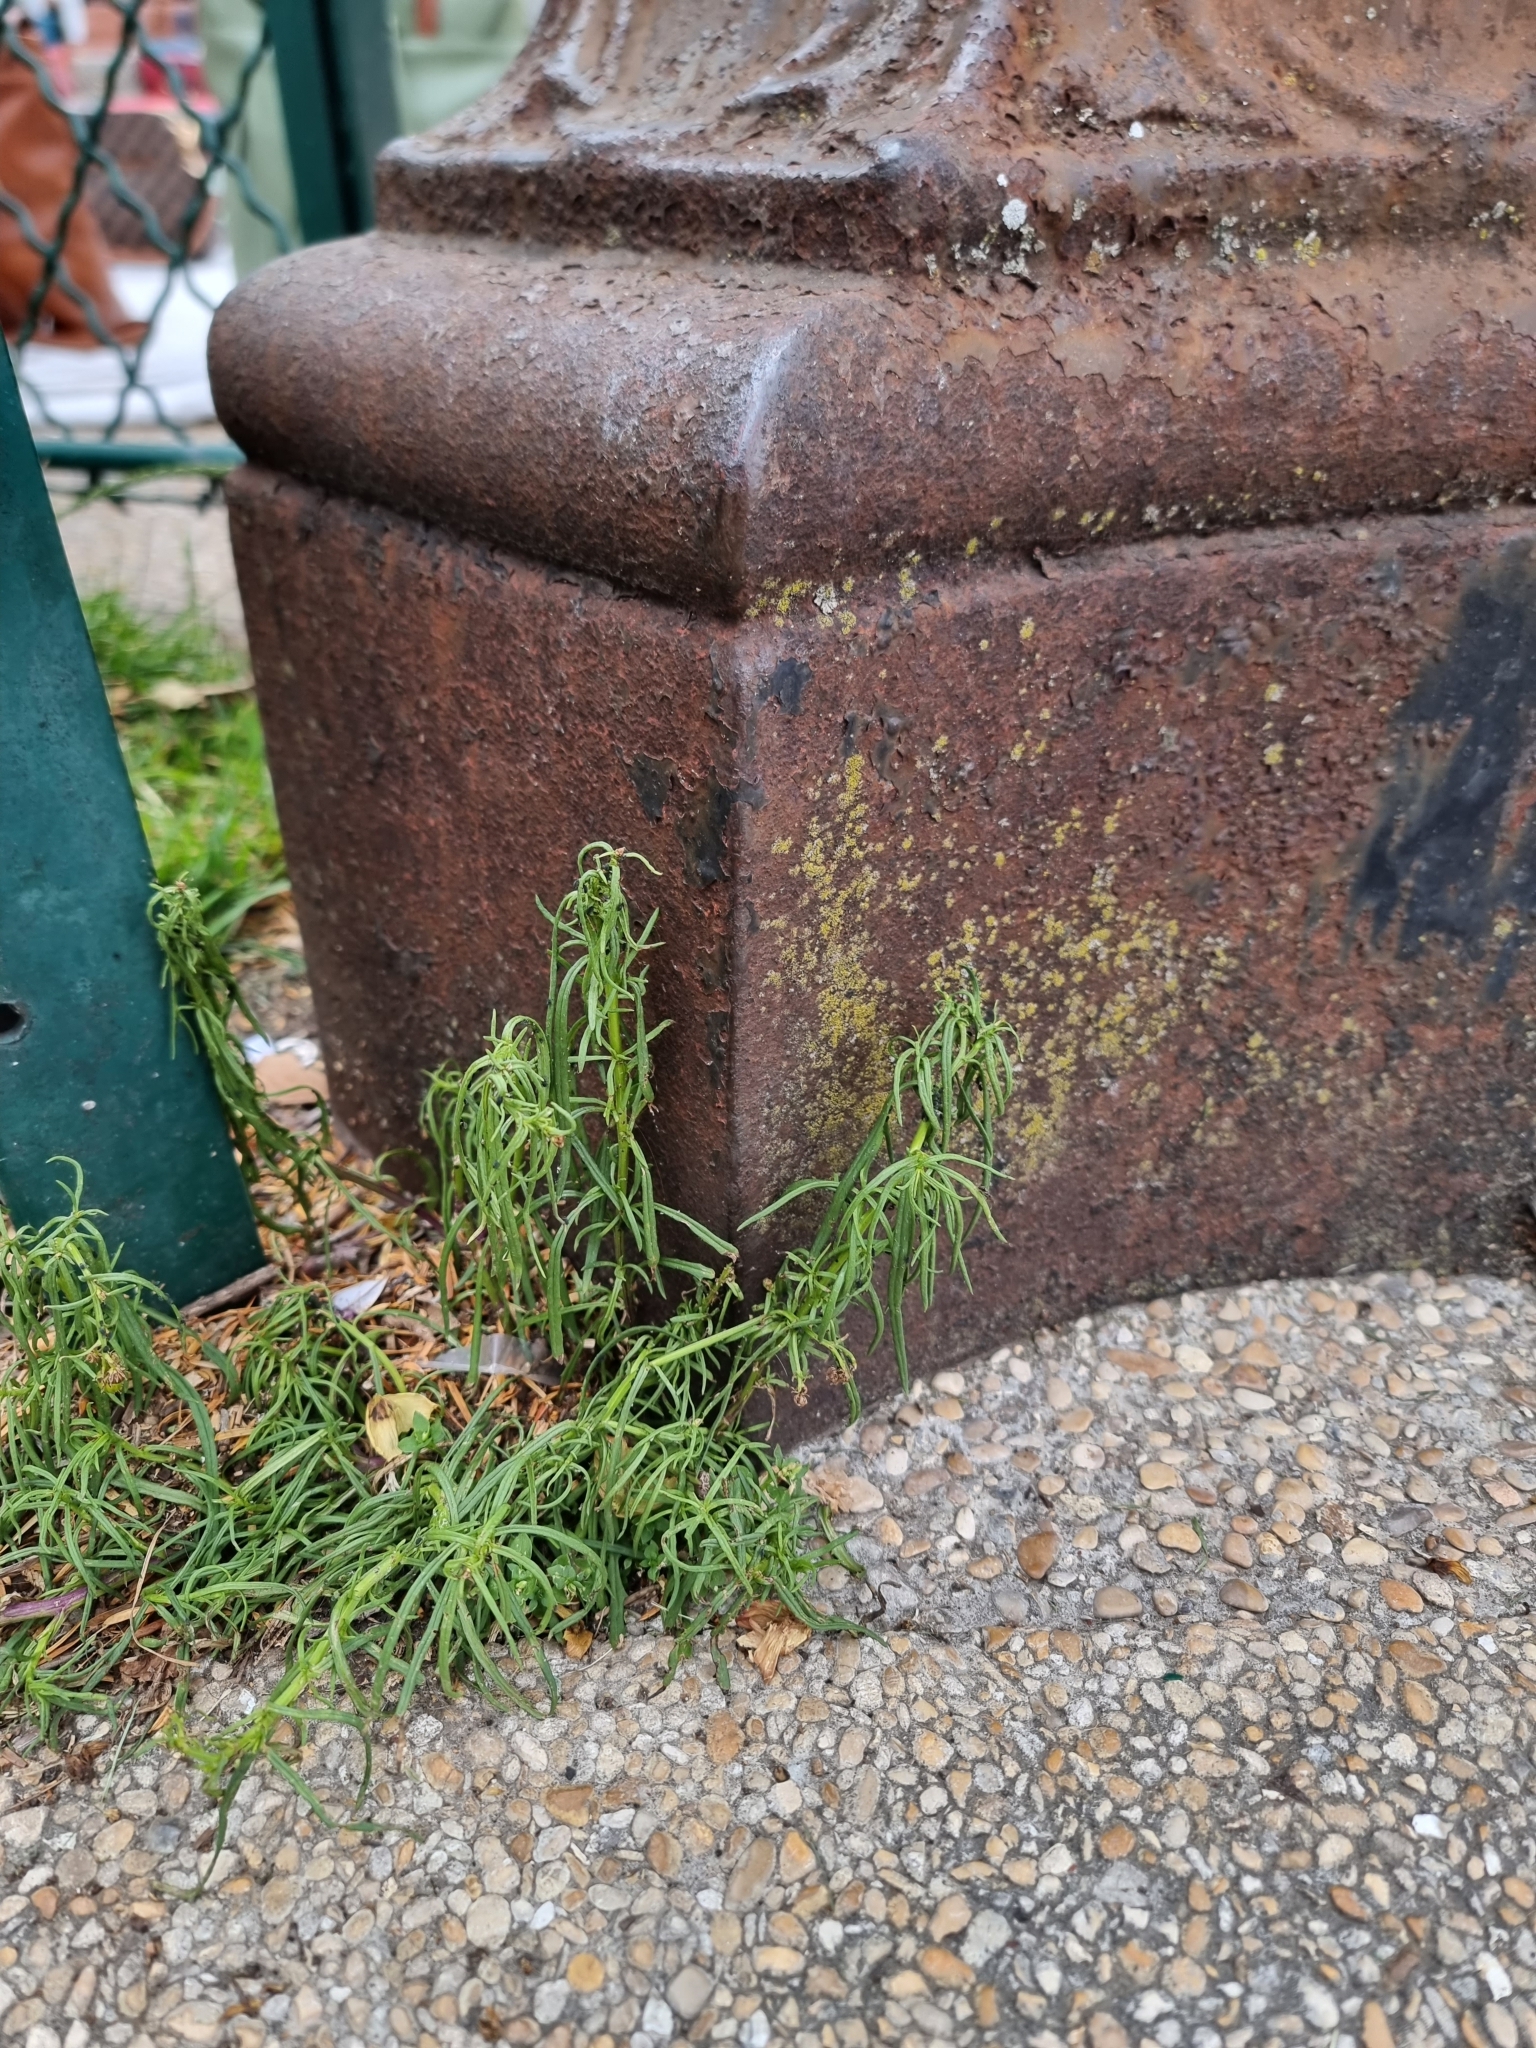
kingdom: Plantae
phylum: Tracheophyta
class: Magnoliopsida
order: Asterales
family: Asteraceae
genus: Senecio
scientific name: Senecio inaequidens
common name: Narrow-leaved ragwort
